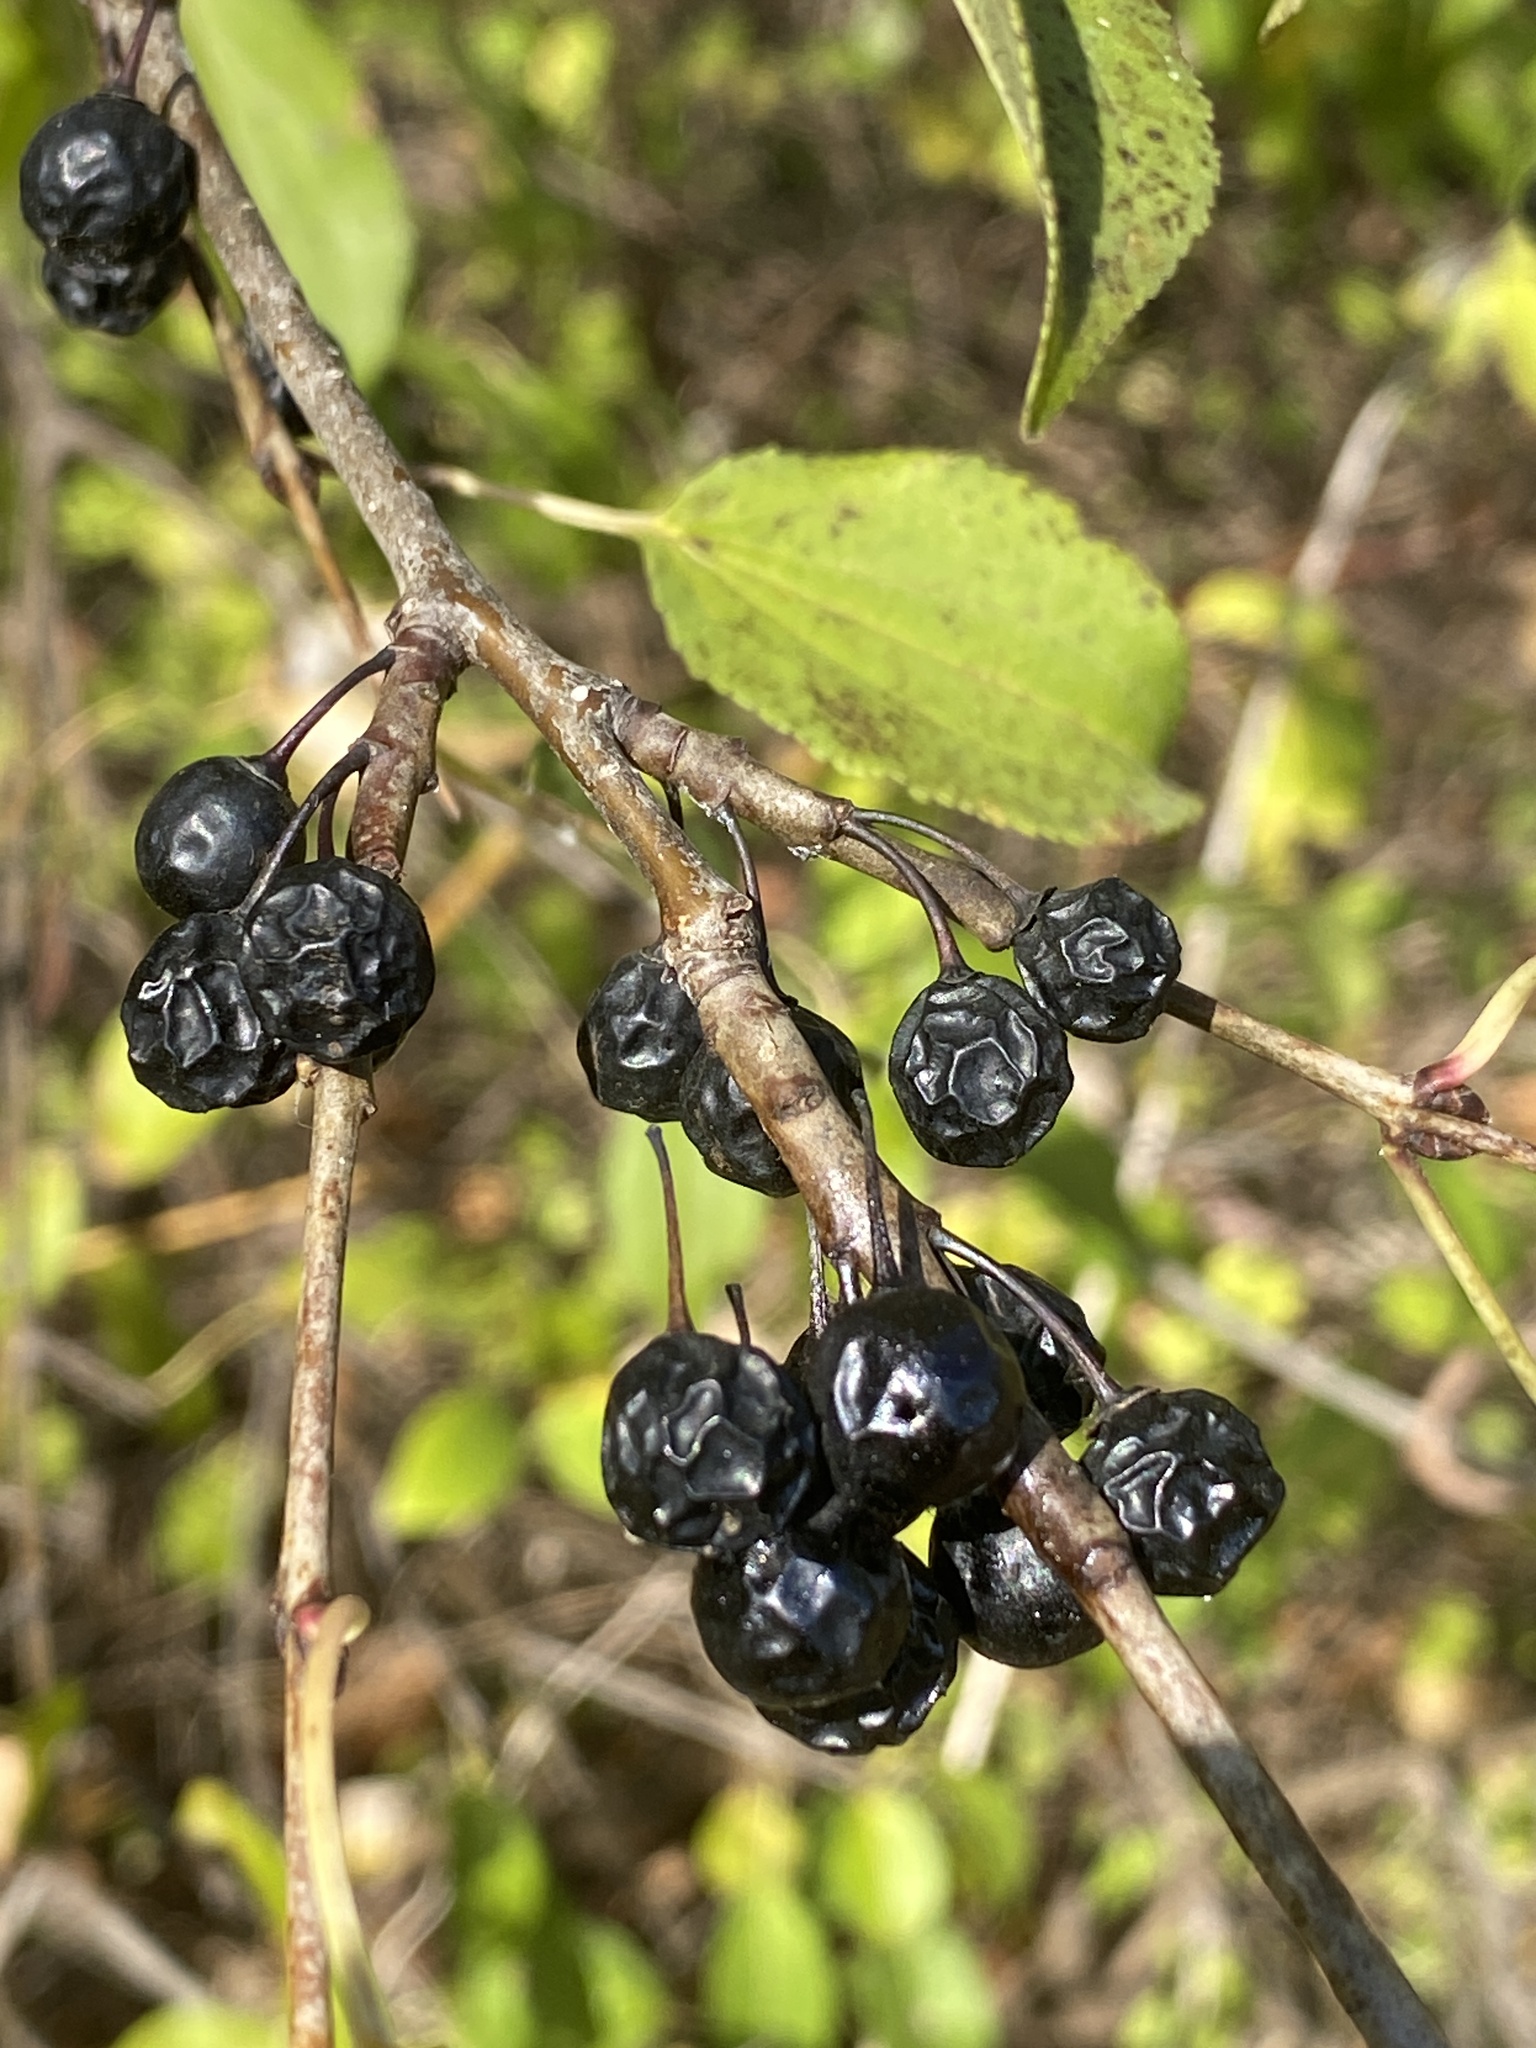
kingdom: Plantae
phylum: Tracheophyta
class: Magnoliopsida
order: Rosales
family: Rhamnaceae
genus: Rhamnus
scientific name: Rhamnus cathartica
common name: Common buckthorn
